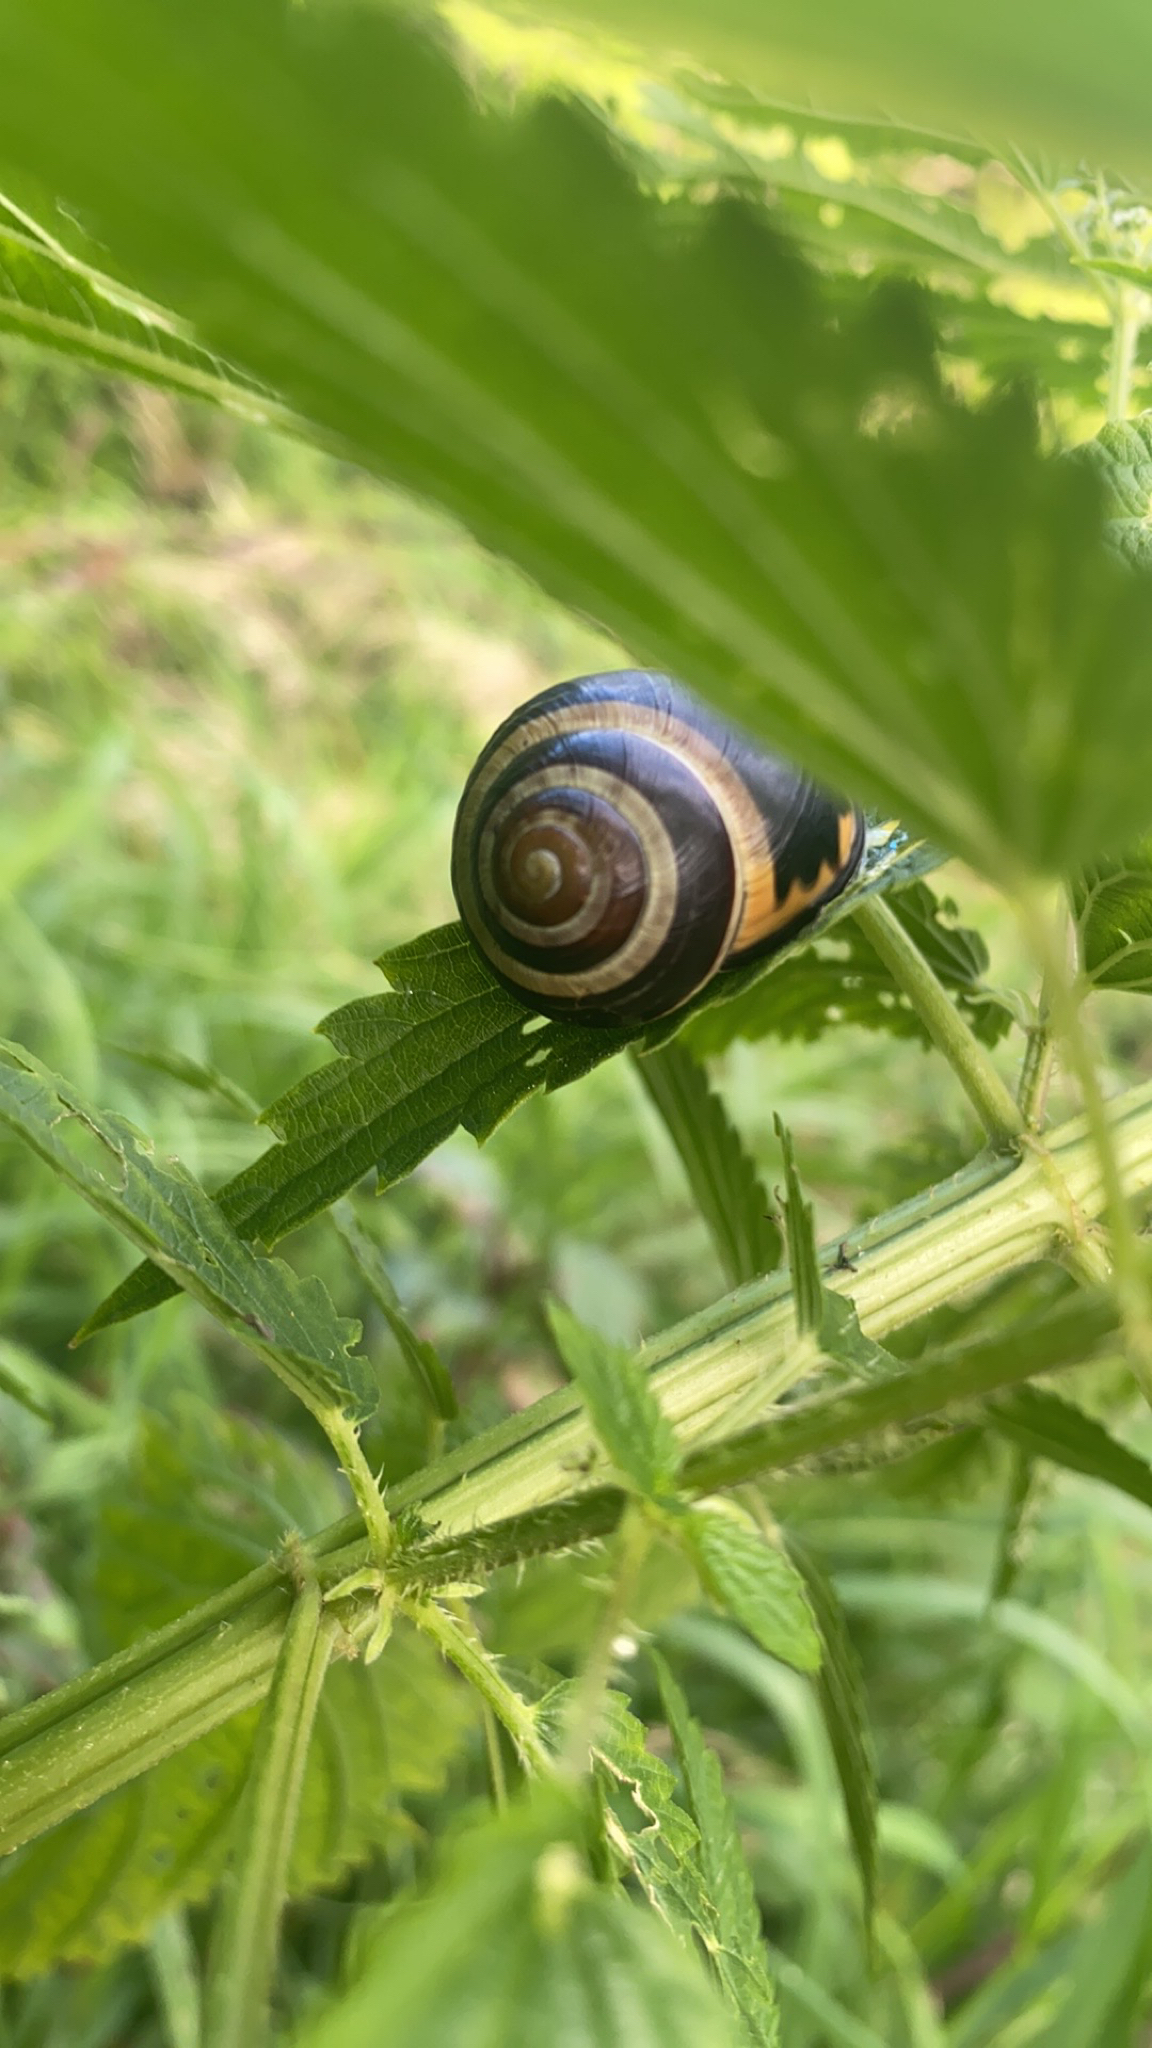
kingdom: Animalia
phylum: Mollusca
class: Gastropoda
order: Stylommatophora
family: Helicidae
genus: Cepaea
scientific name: Cepaea nemoralis
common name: Grovesnail
